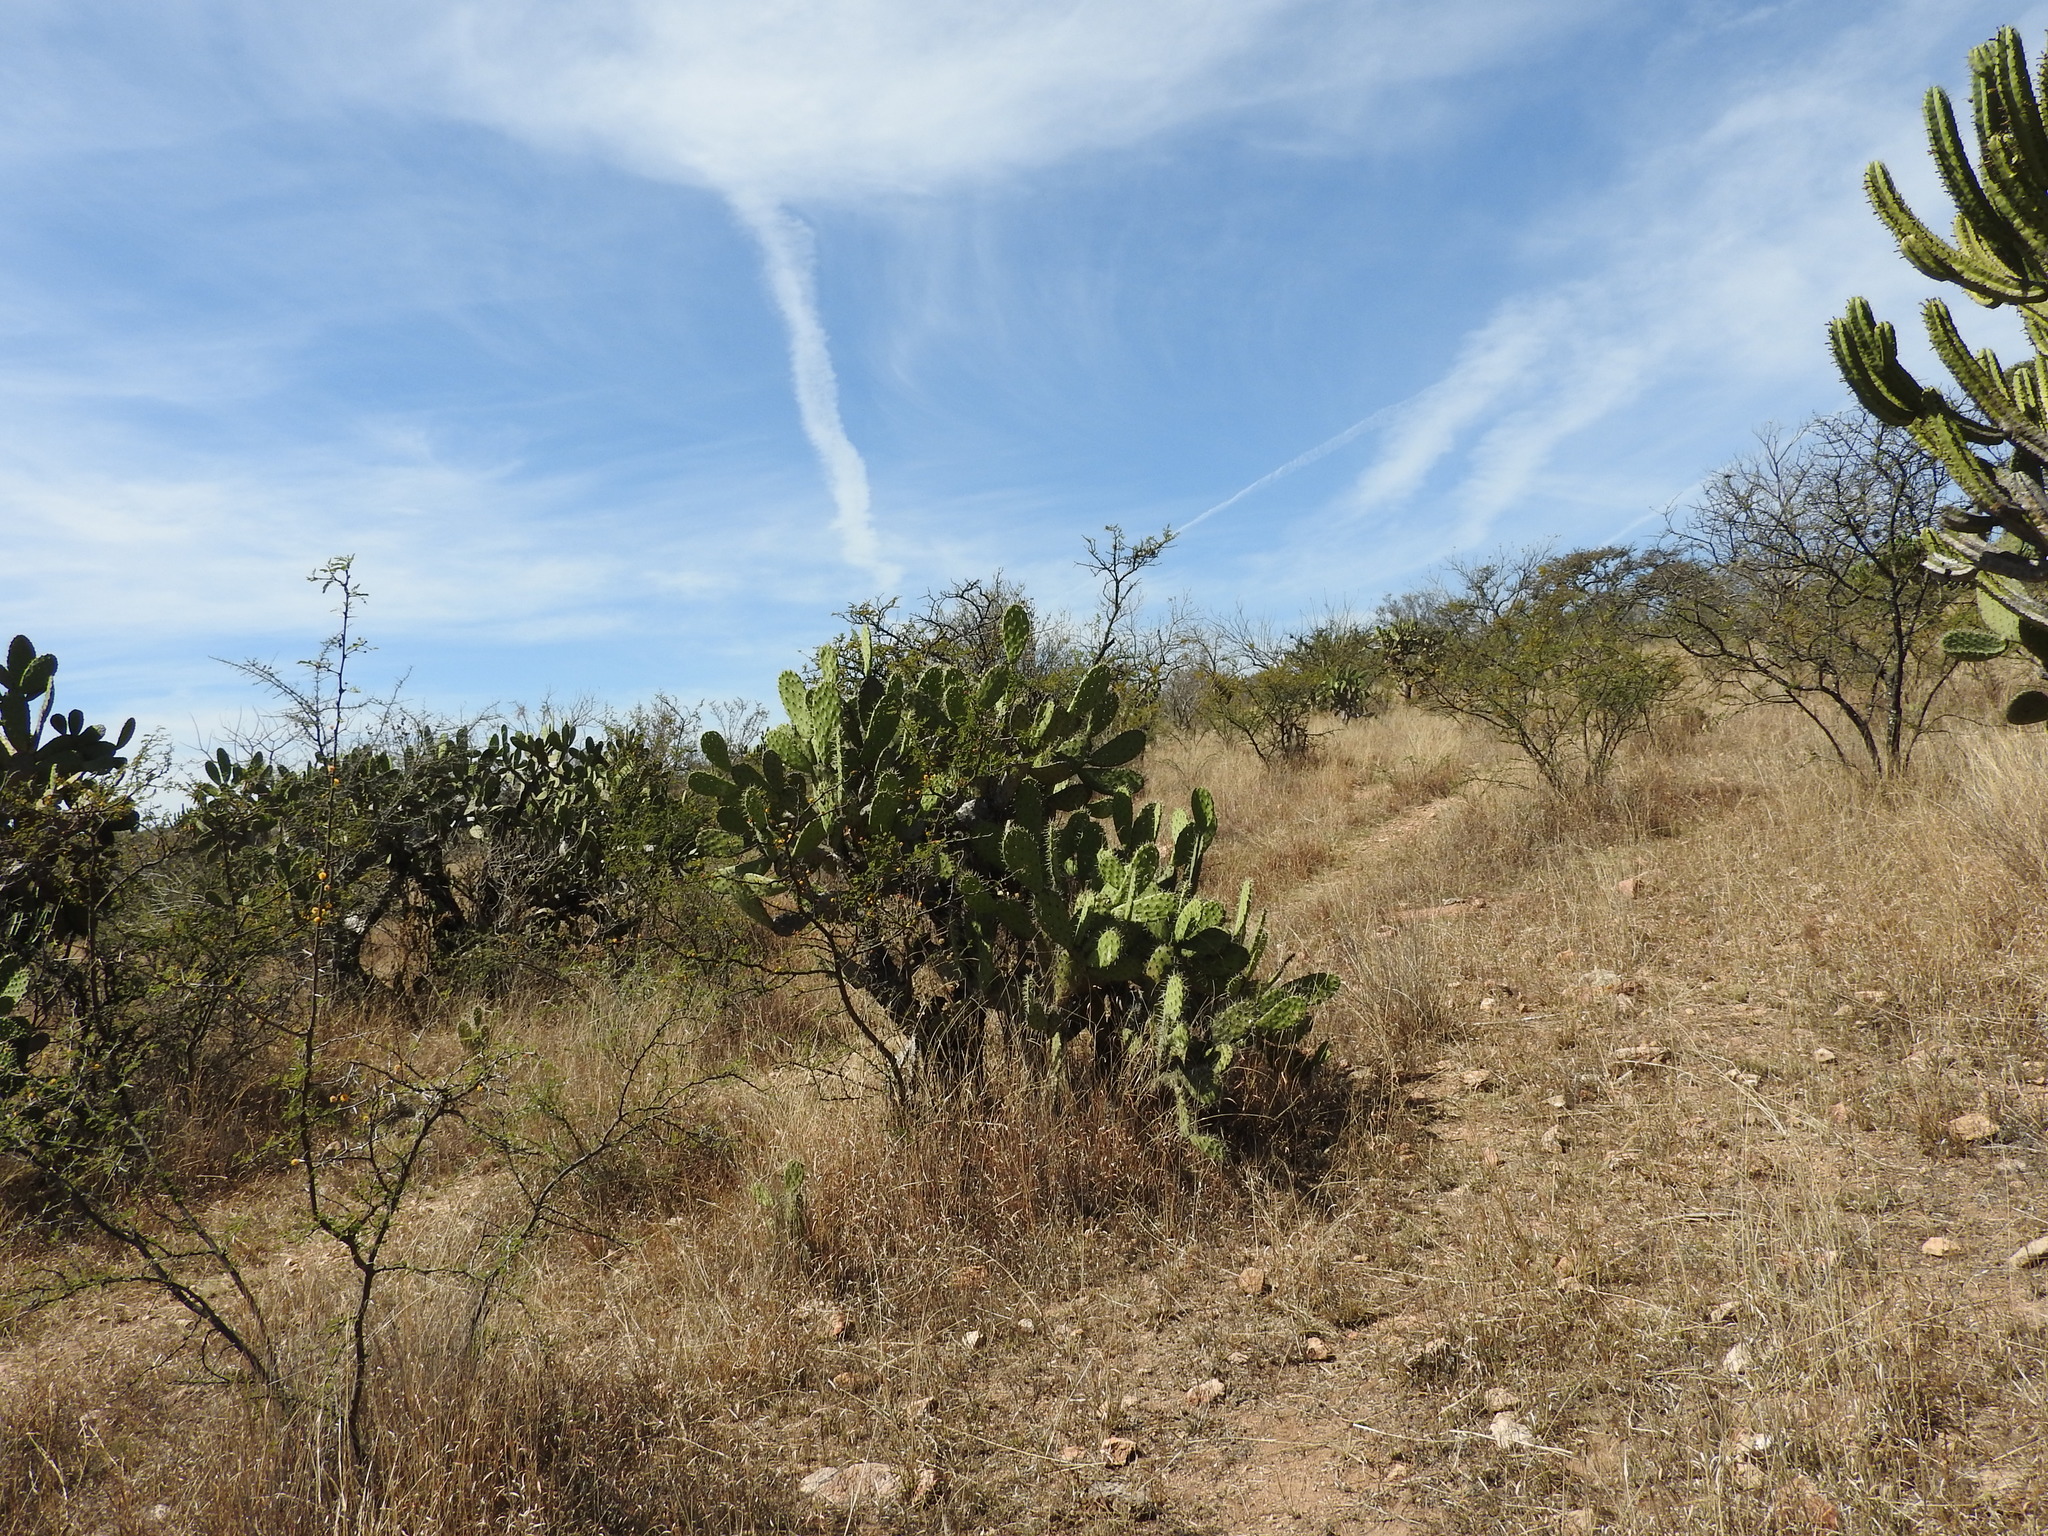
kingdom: Plantae
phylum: Tracheophyta
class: Magnoliopsida
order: Caryophyllales
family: Cactaceae
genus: Opuntia
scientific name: Opuntia jaliscana
